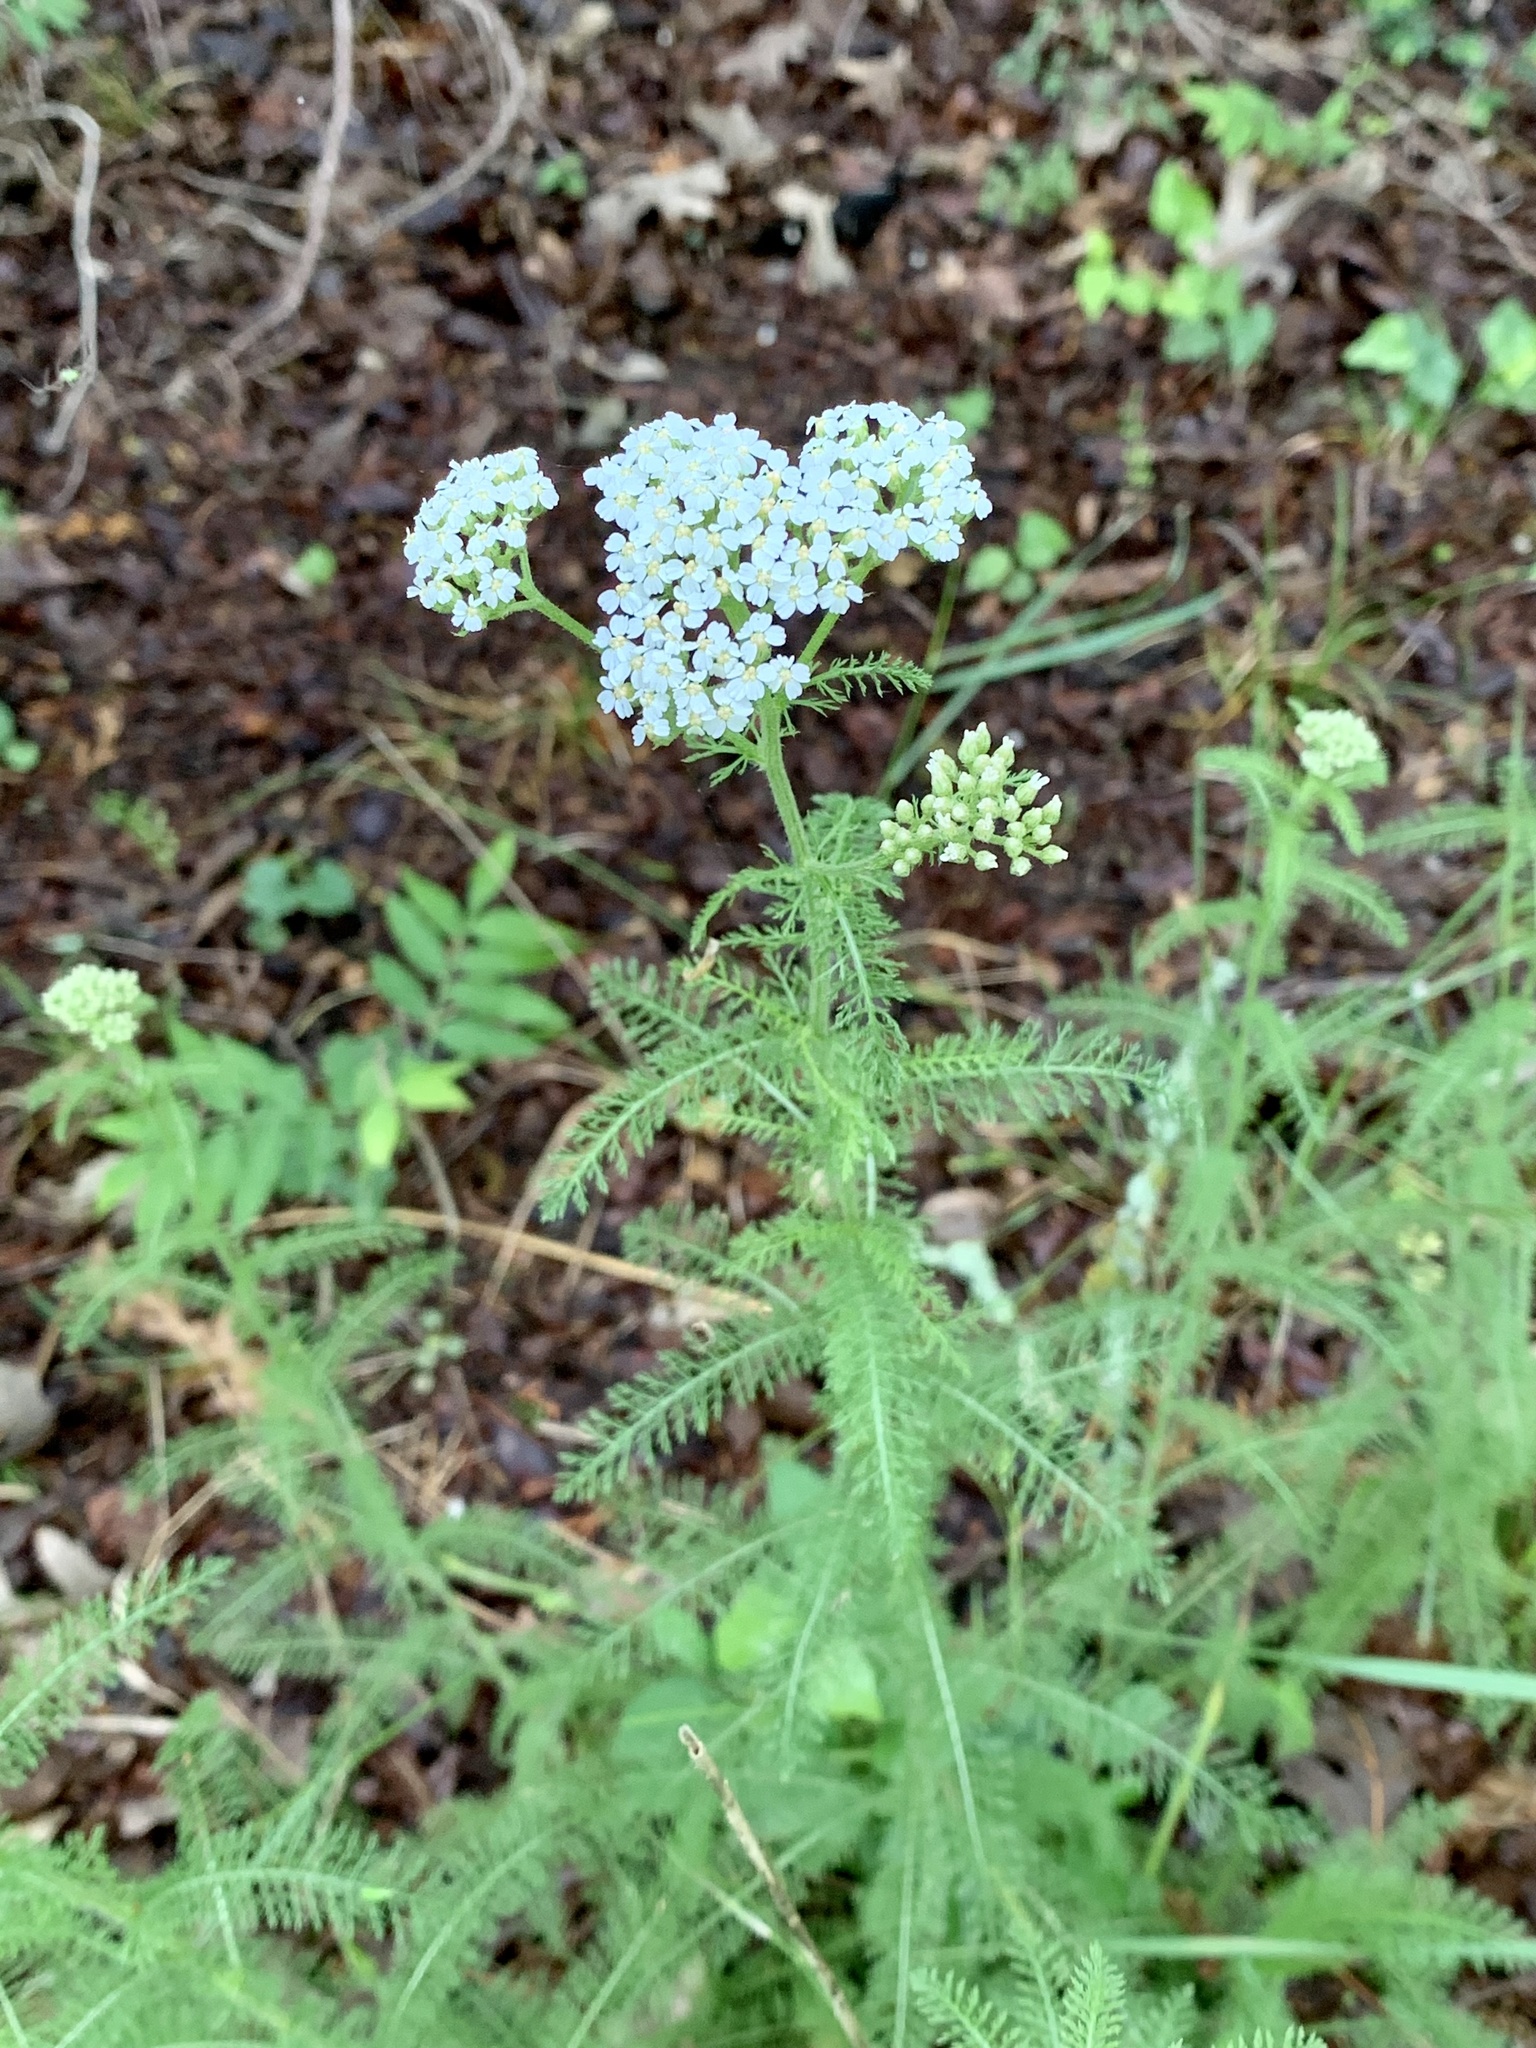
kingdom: Plantae
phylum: Tracheophyta
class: Magnoliopsida
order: Asterales
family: Asteraceae
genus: Achillea
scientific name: Achillea millefolium
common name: Yarrow
